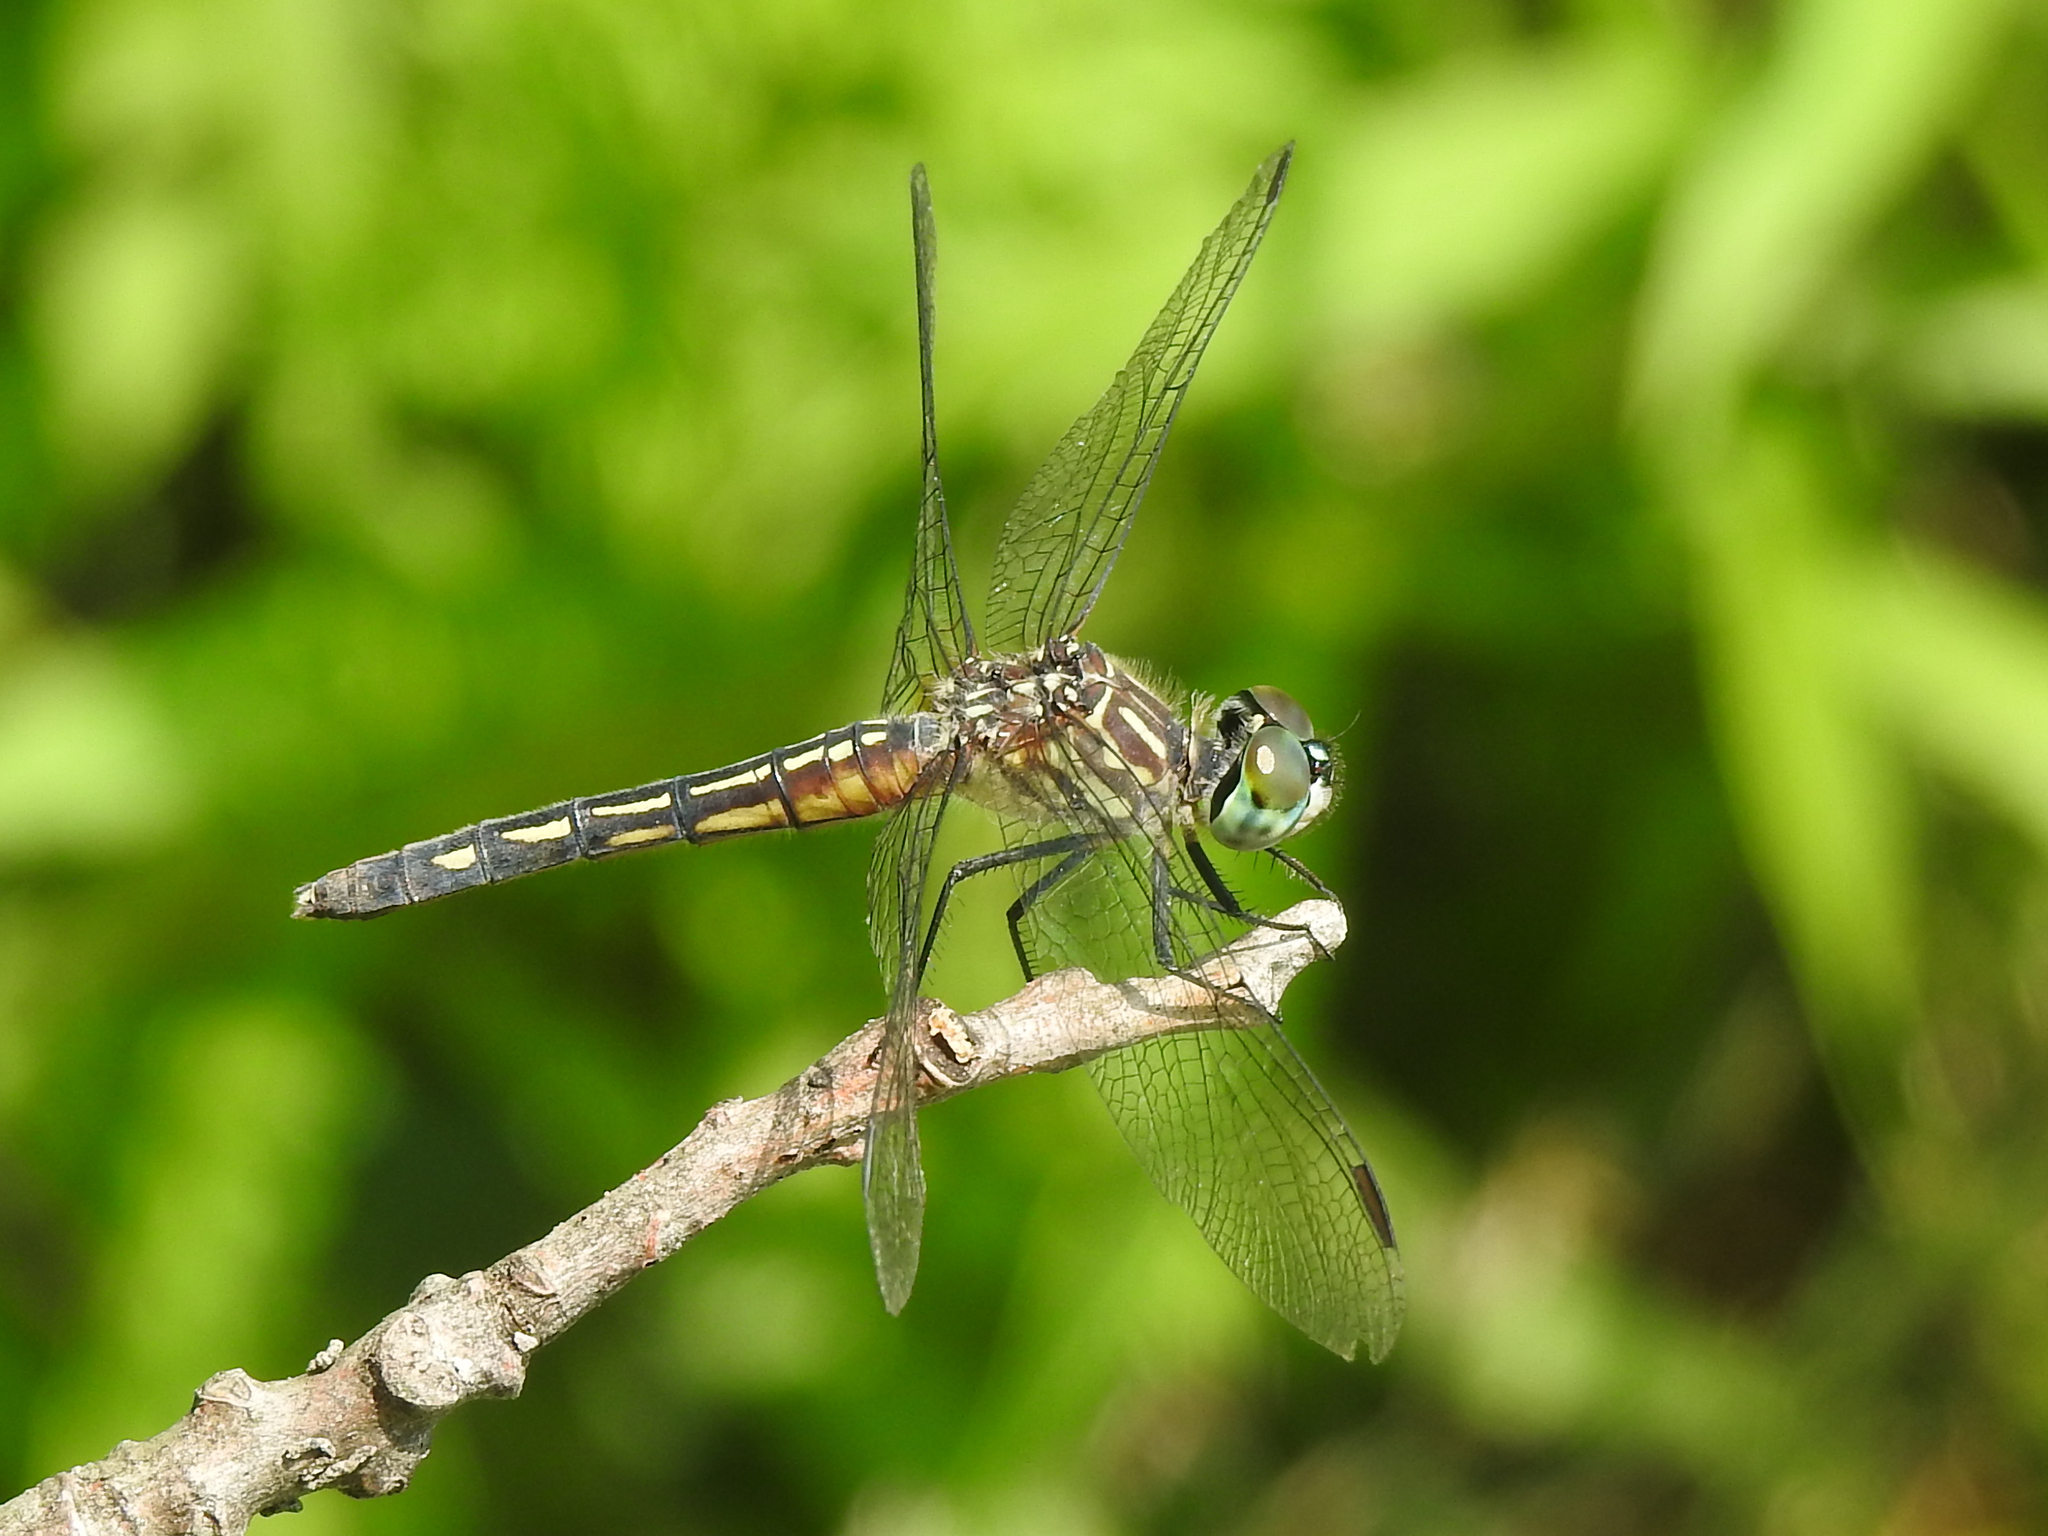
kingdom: Animalia
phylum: Arthropoda
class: Insecta
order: Odonata
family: Libellulidae
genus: Pachydiplax
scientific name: Pachydiplax longipennis
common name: Blue dasher
